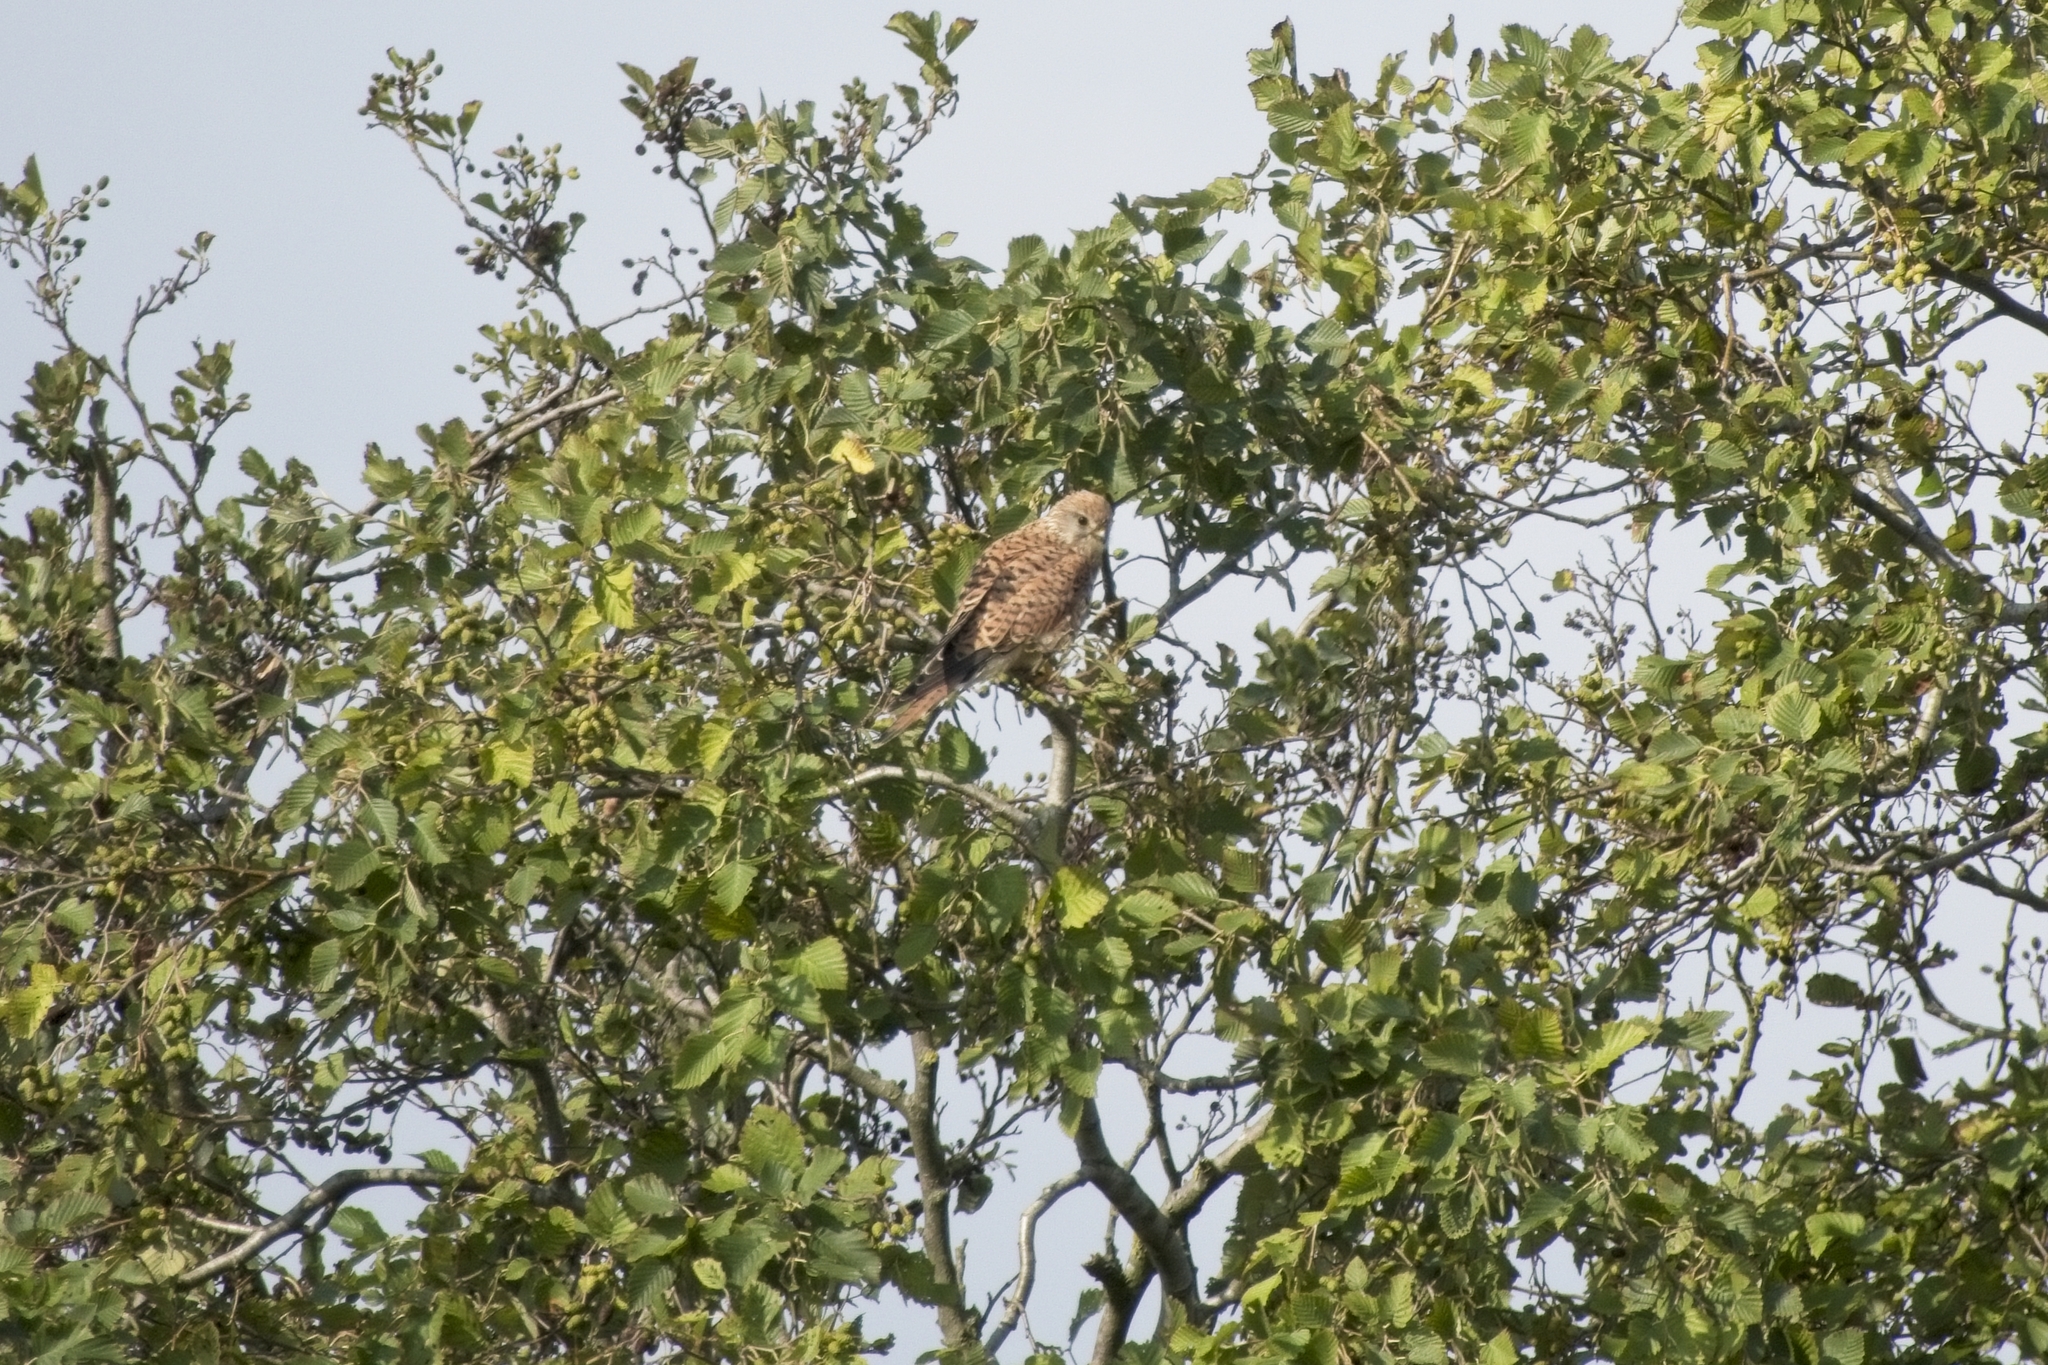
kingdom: Animalia
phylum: Chordata
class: Aves
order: Falconiformes
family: Falconidae
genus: Falco
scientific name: Falco tinnunculus
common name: Common kestrel
